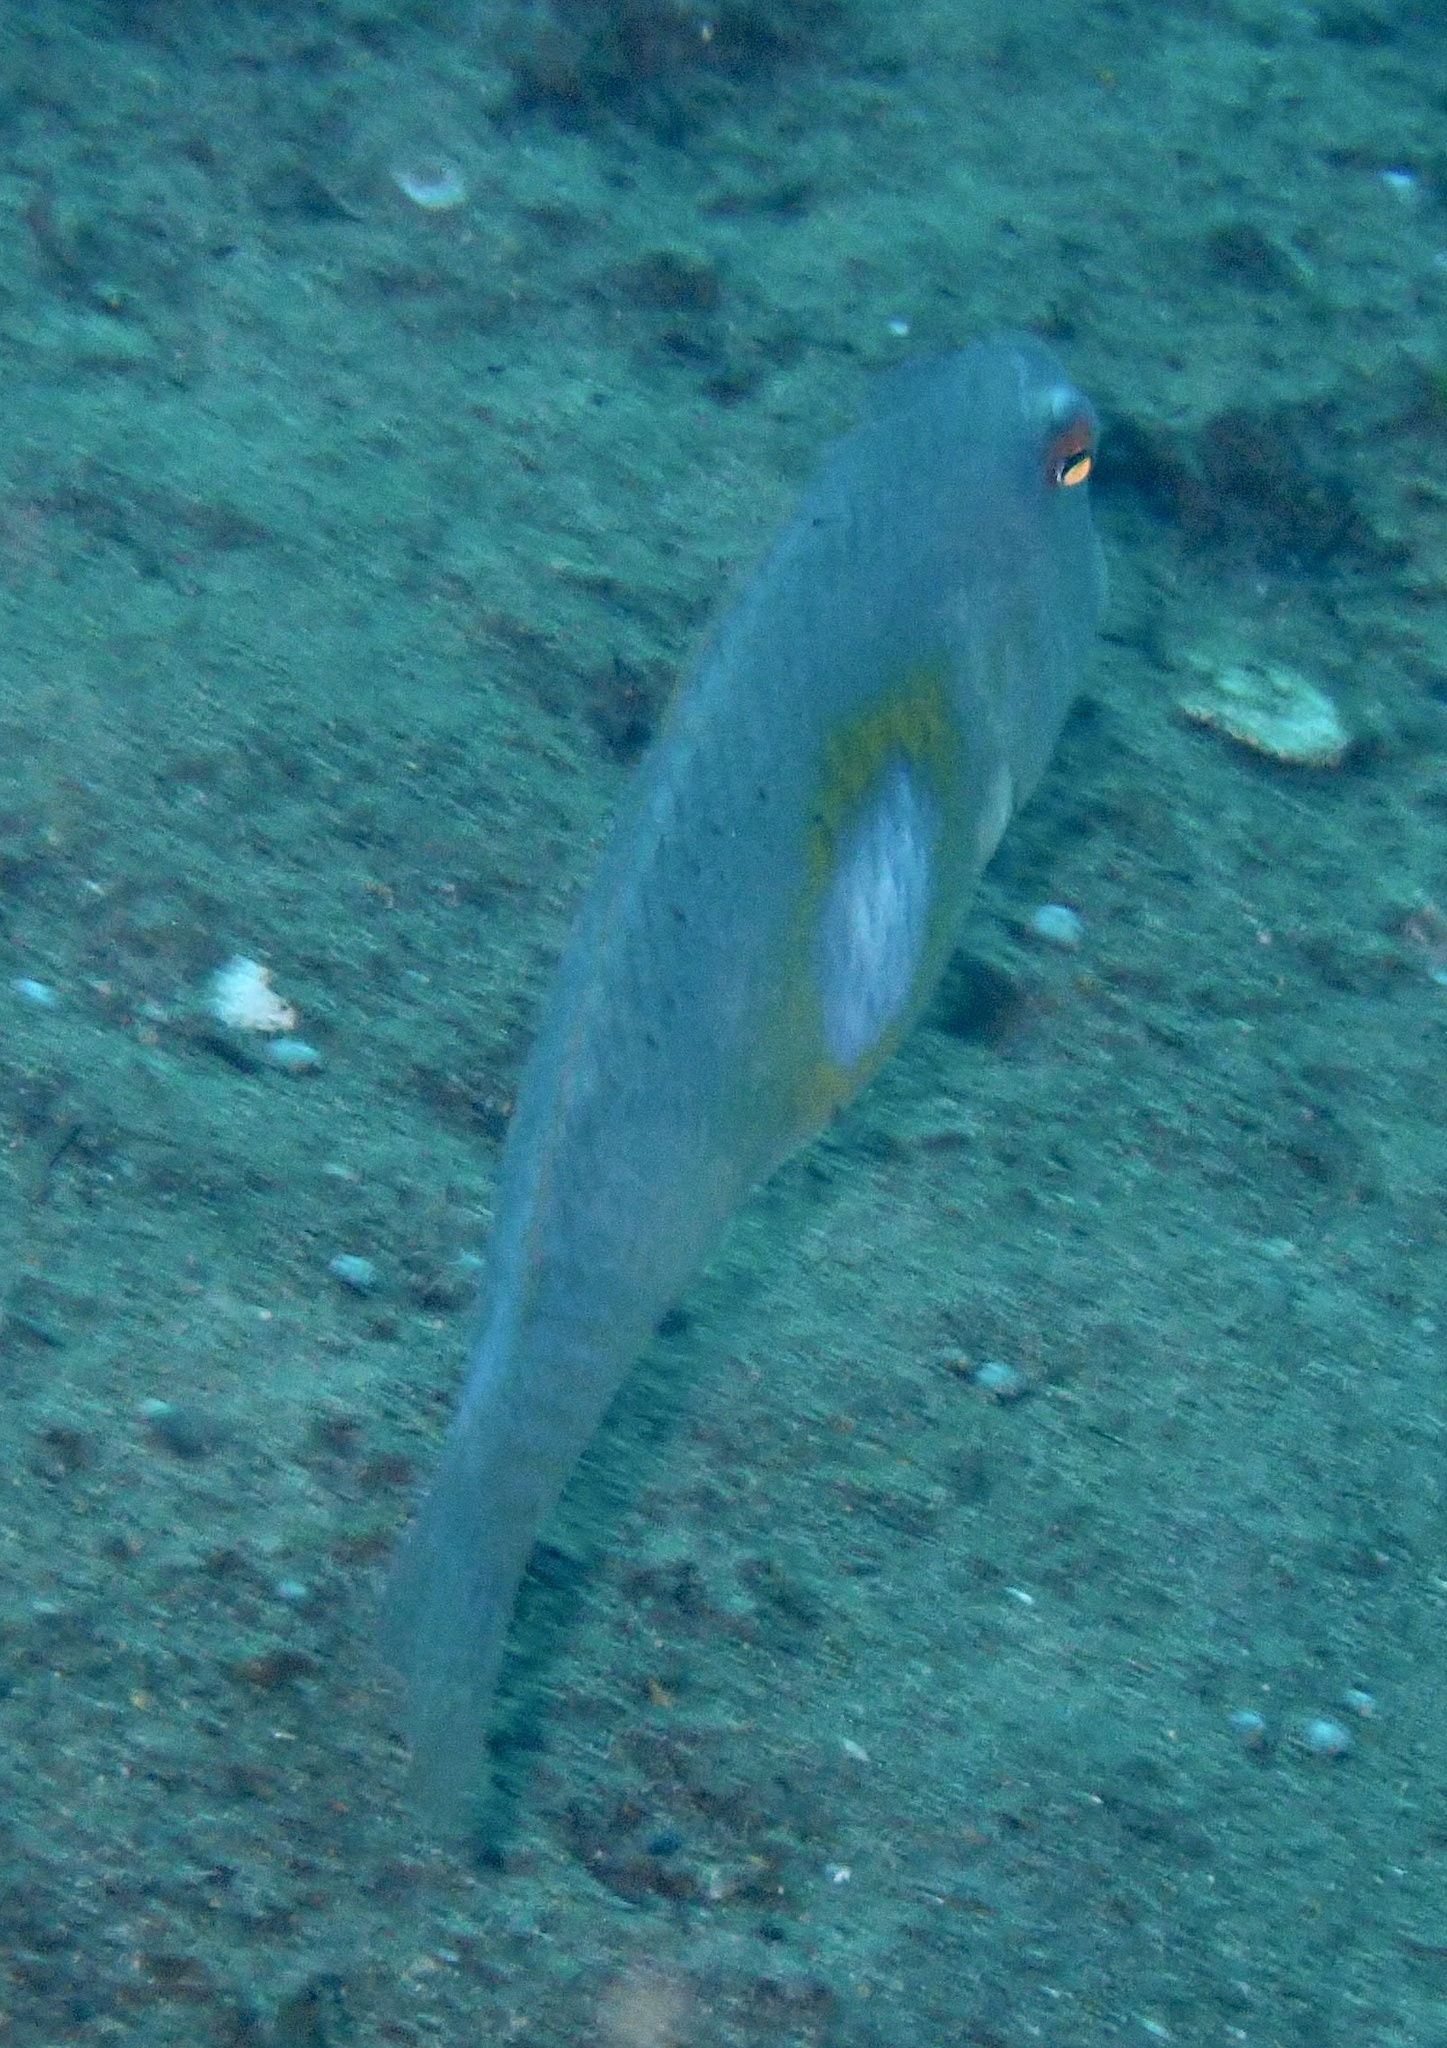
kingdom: Animalia
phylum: Chordata
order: Perciformes
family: Labridae
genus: Iniistius
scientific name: Iniistius melanopus
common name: Yellowpatch razorfish
